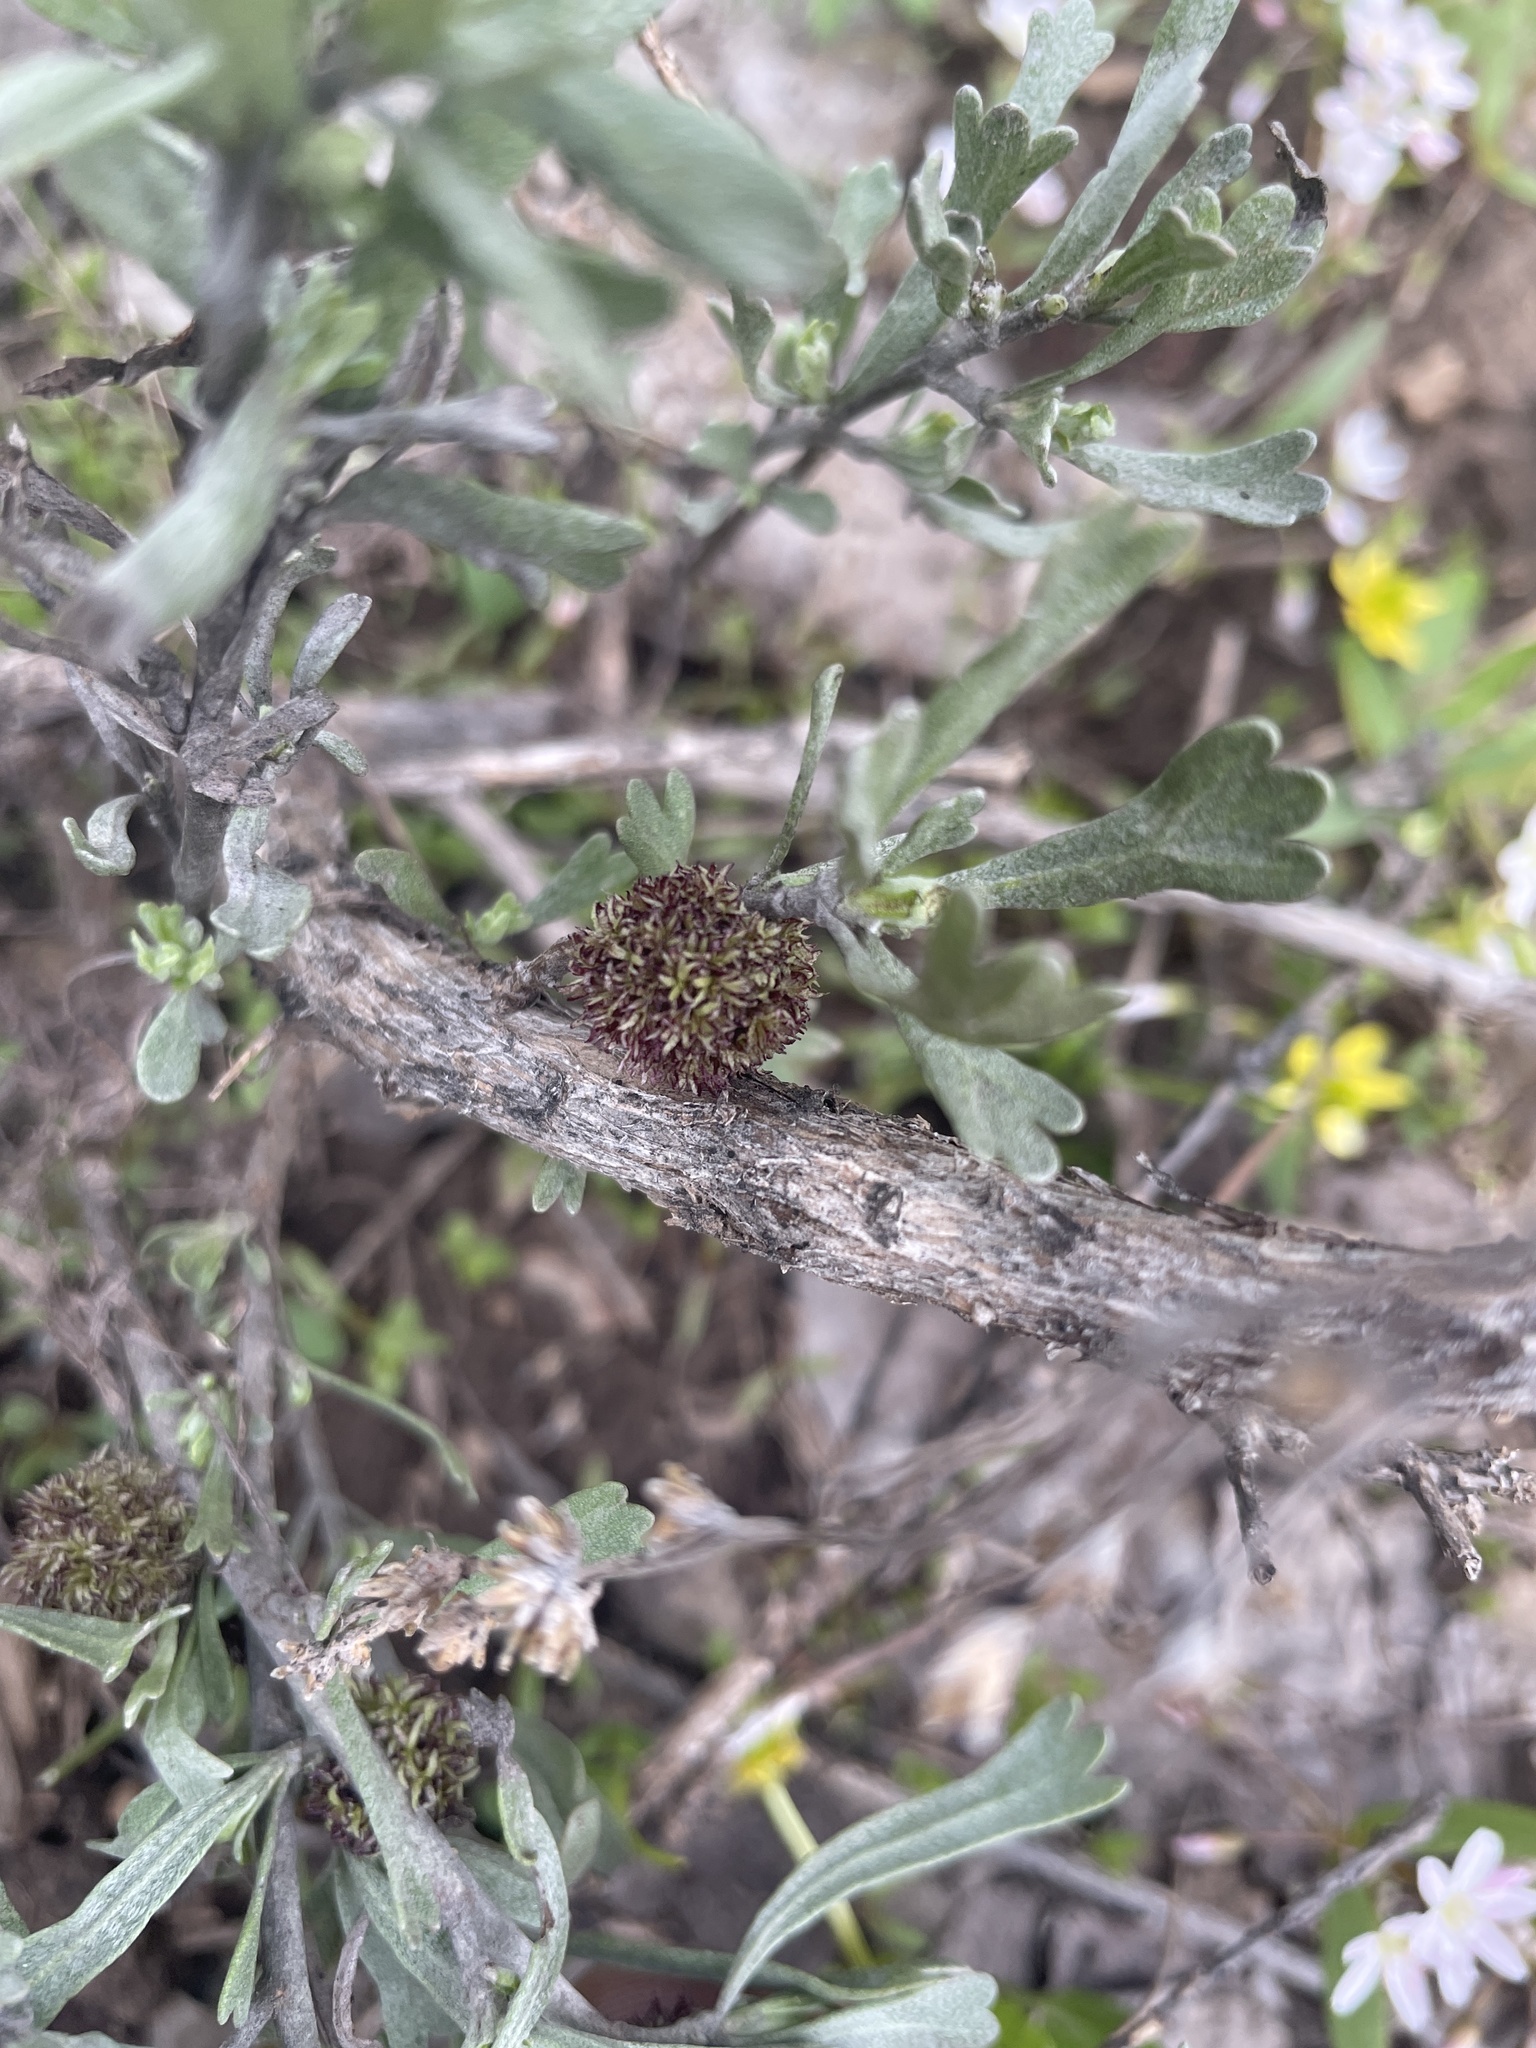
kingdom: Animalia
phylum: Arthropoda
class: Insecta
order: Diptera
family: Cecidomyiidae
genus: Rhopalomyia
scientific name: Rhopalomyia medusa
